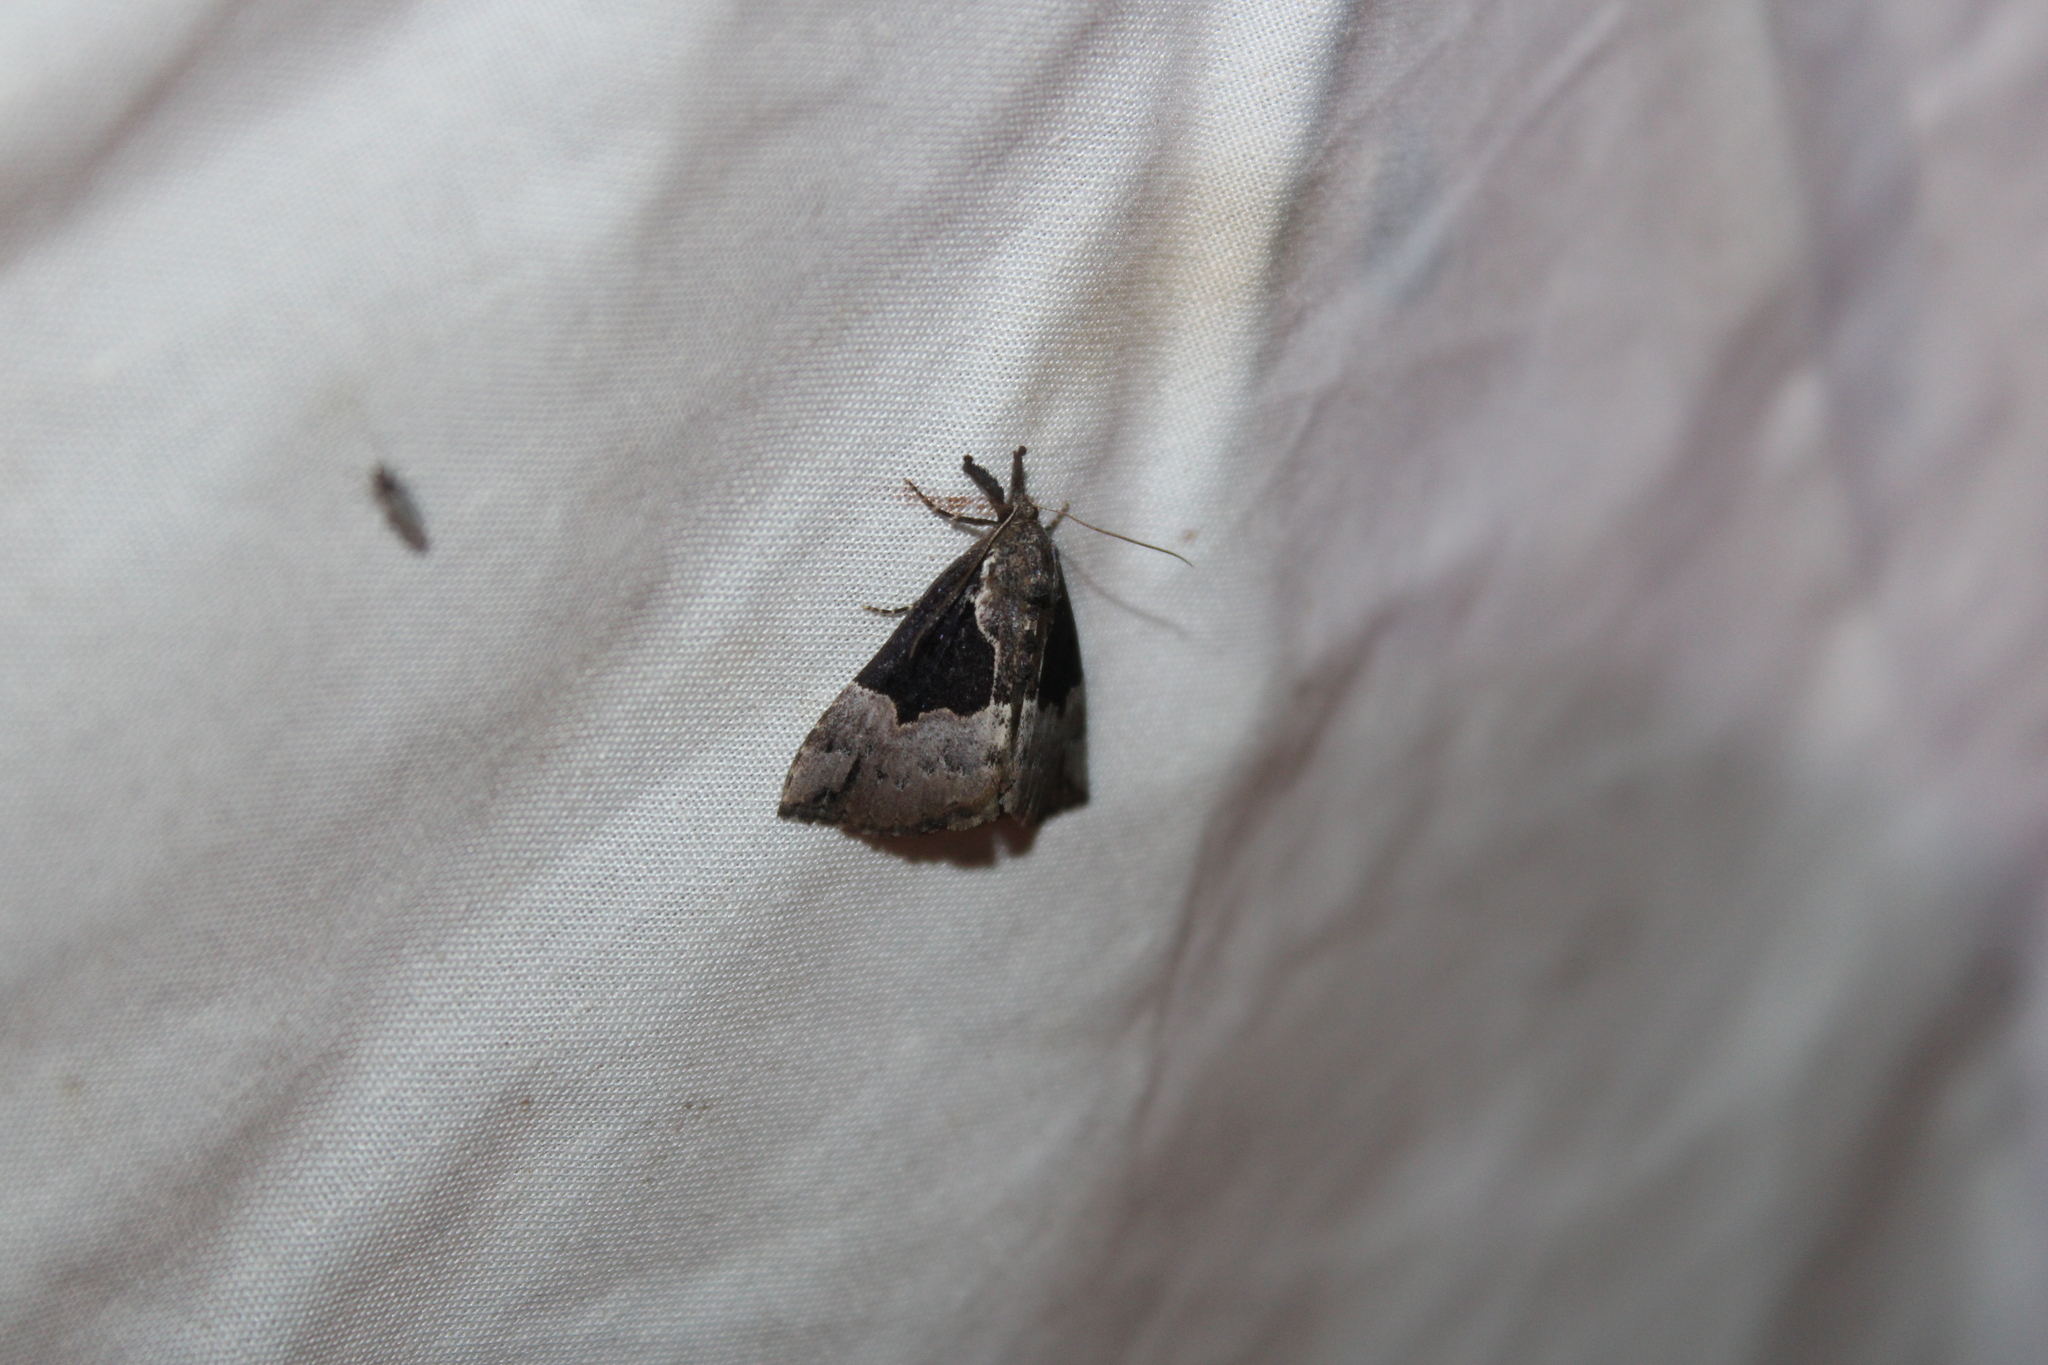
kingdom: Animalia
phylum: Arthropoda
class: Insecta
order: Lepidoptera
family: Erebidae
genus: Hypena
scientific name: Hypena bijugalis
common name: Dimorphic bomolocha moth
